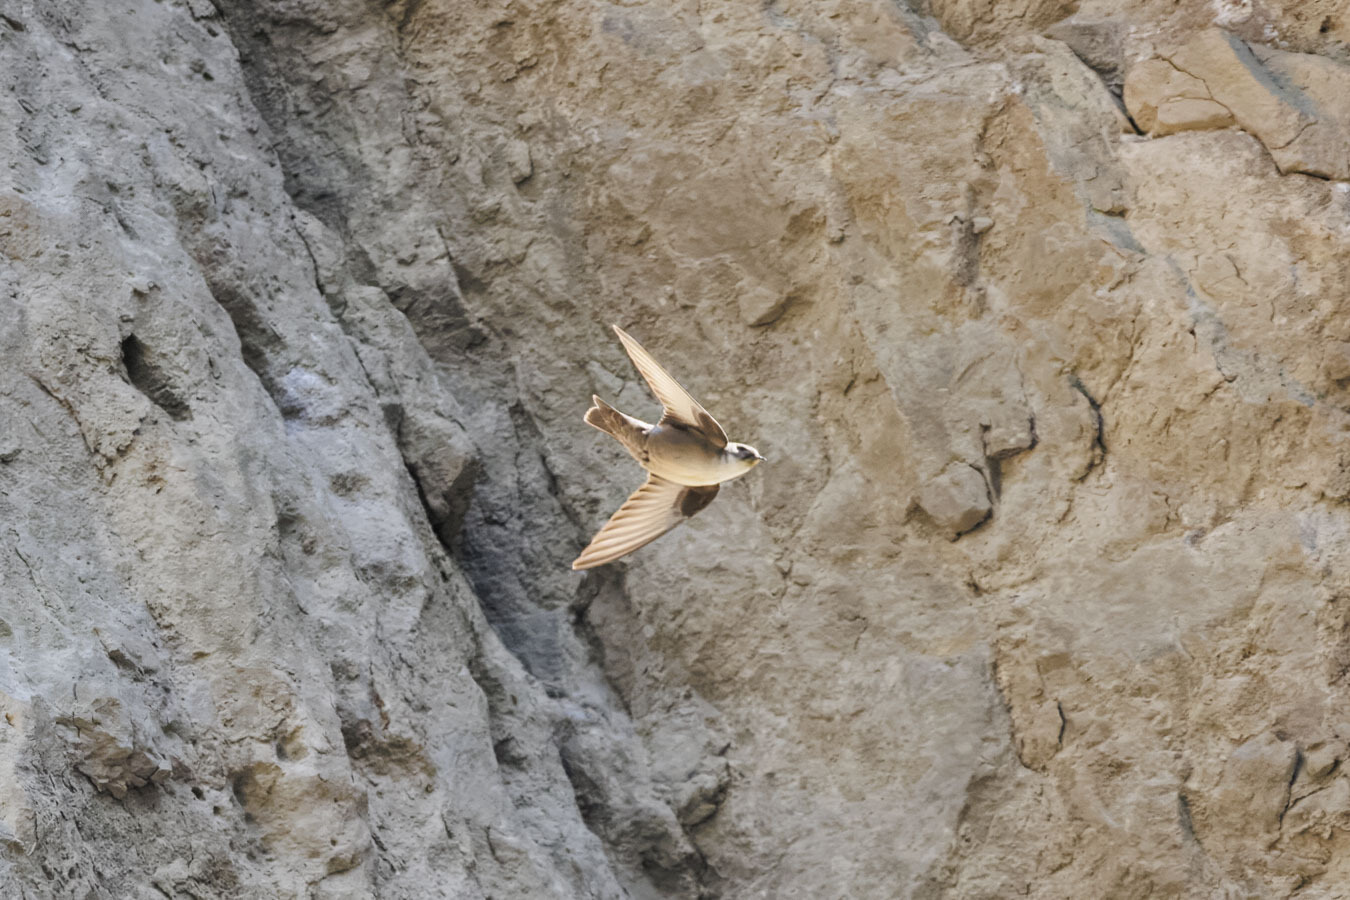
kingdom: Animalia
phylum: Chordata
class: Aves
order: Passeriformes
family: Hirundinidae
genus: Ptyonoprogne
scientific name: Ptyonoprogne rupestris
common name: Eurasian crag martin
